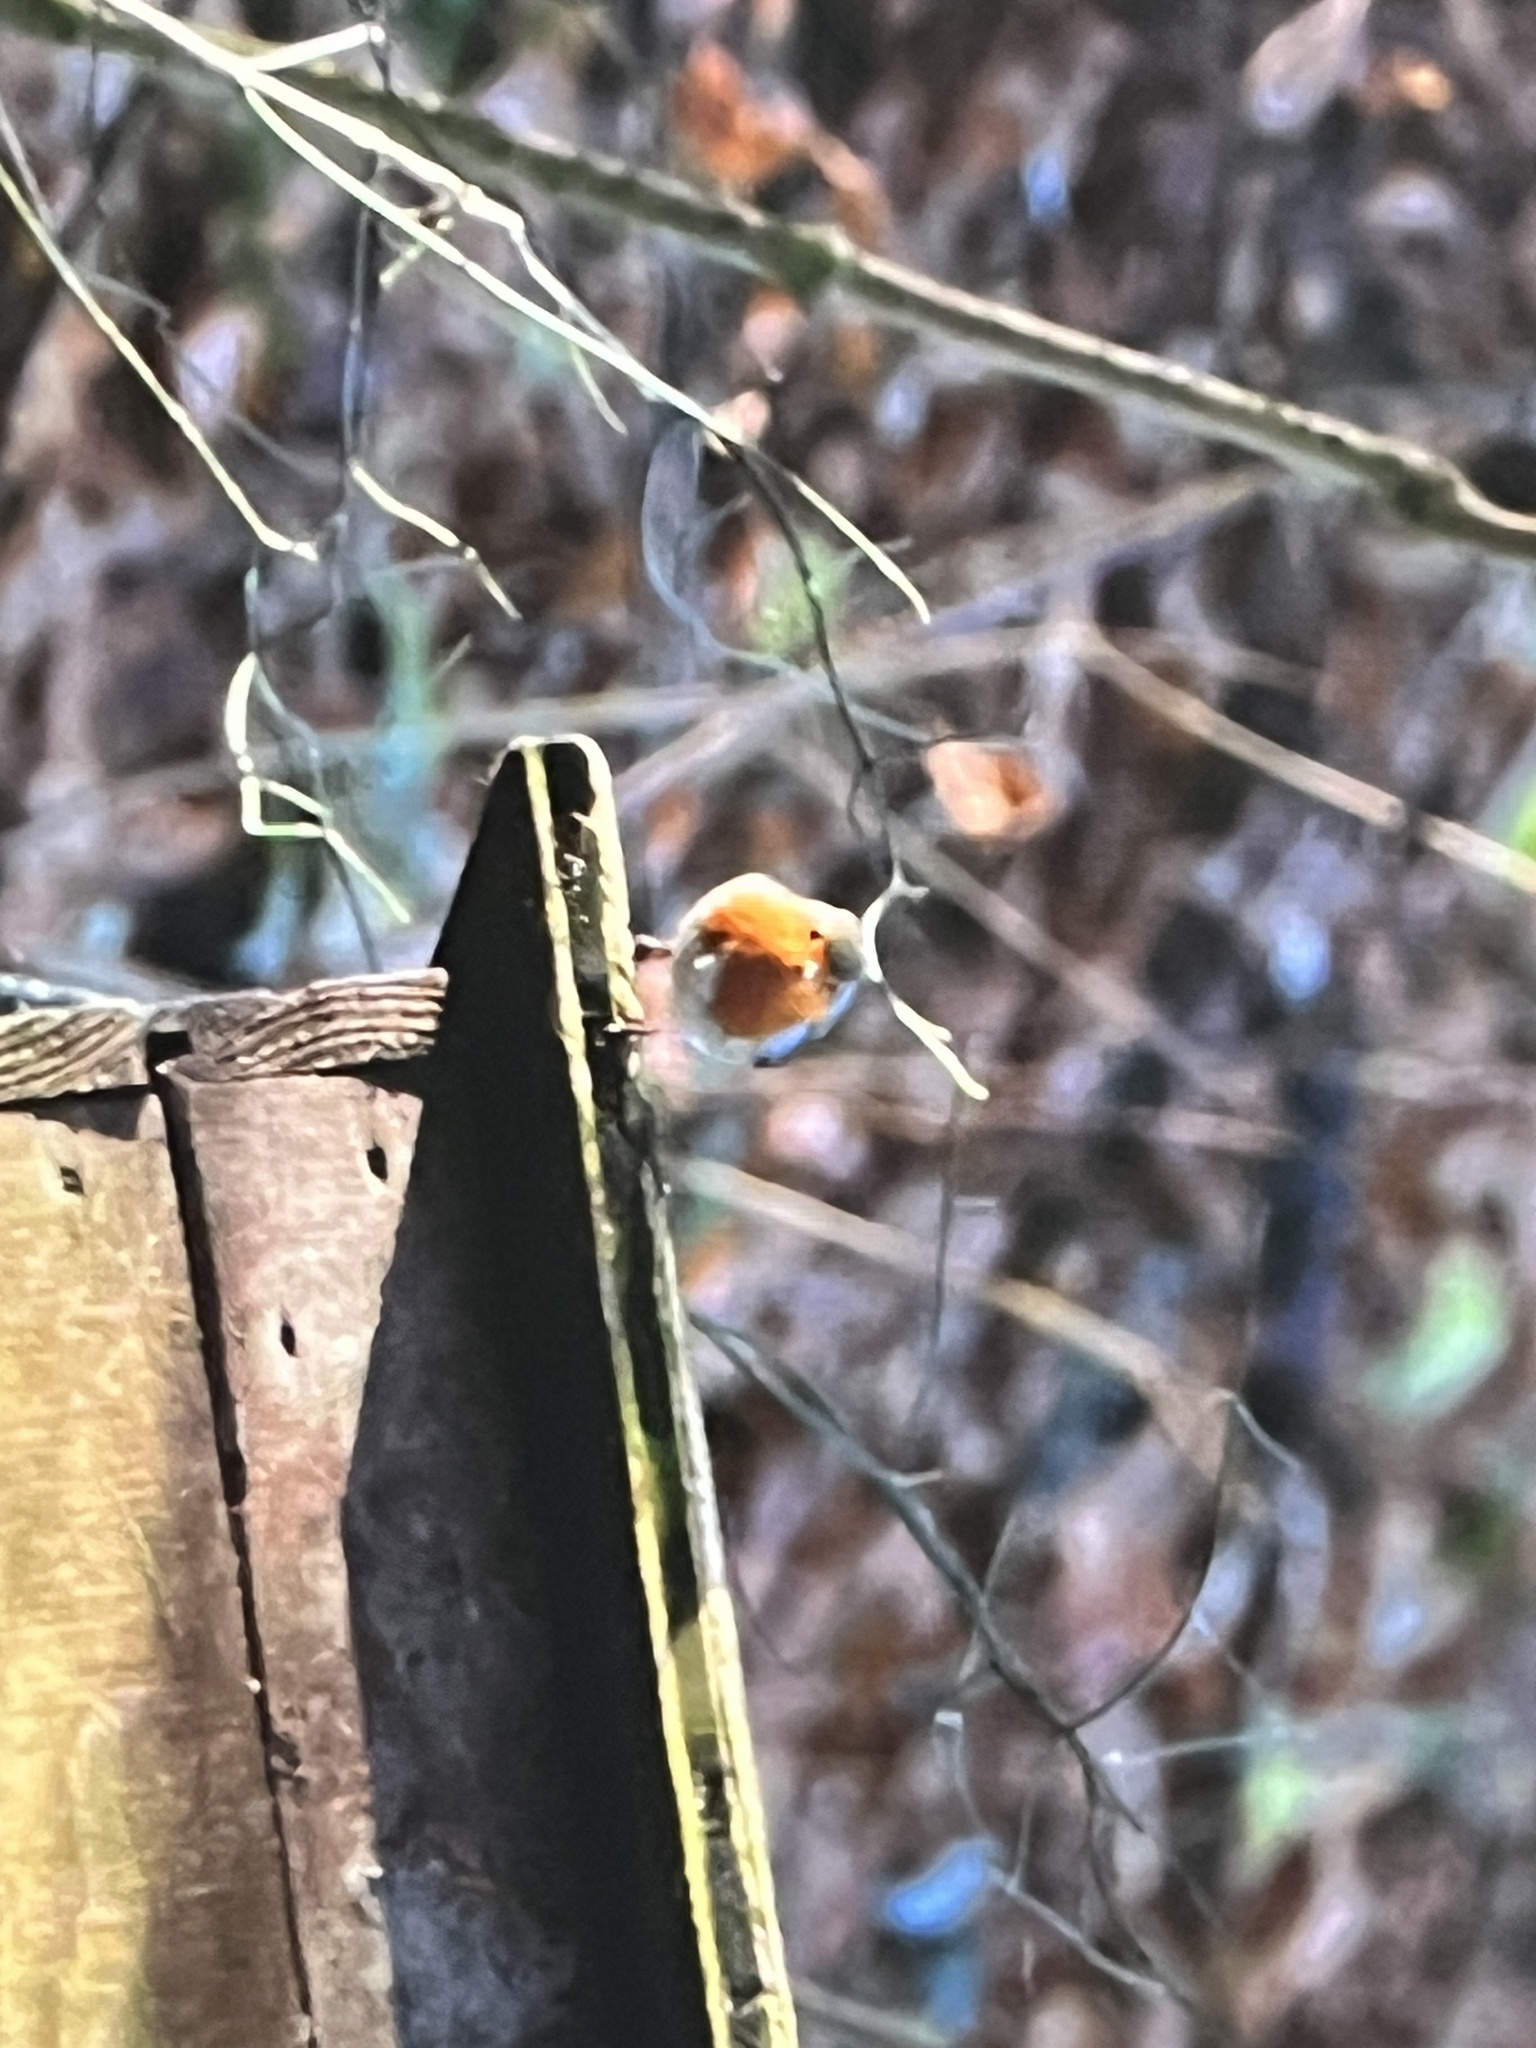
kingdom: Animalia
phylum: Chordata
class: Aves
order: Passeriformes
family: Muscicapidae
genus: Erithacus
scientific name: Erithacus rubecula
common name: European robin
